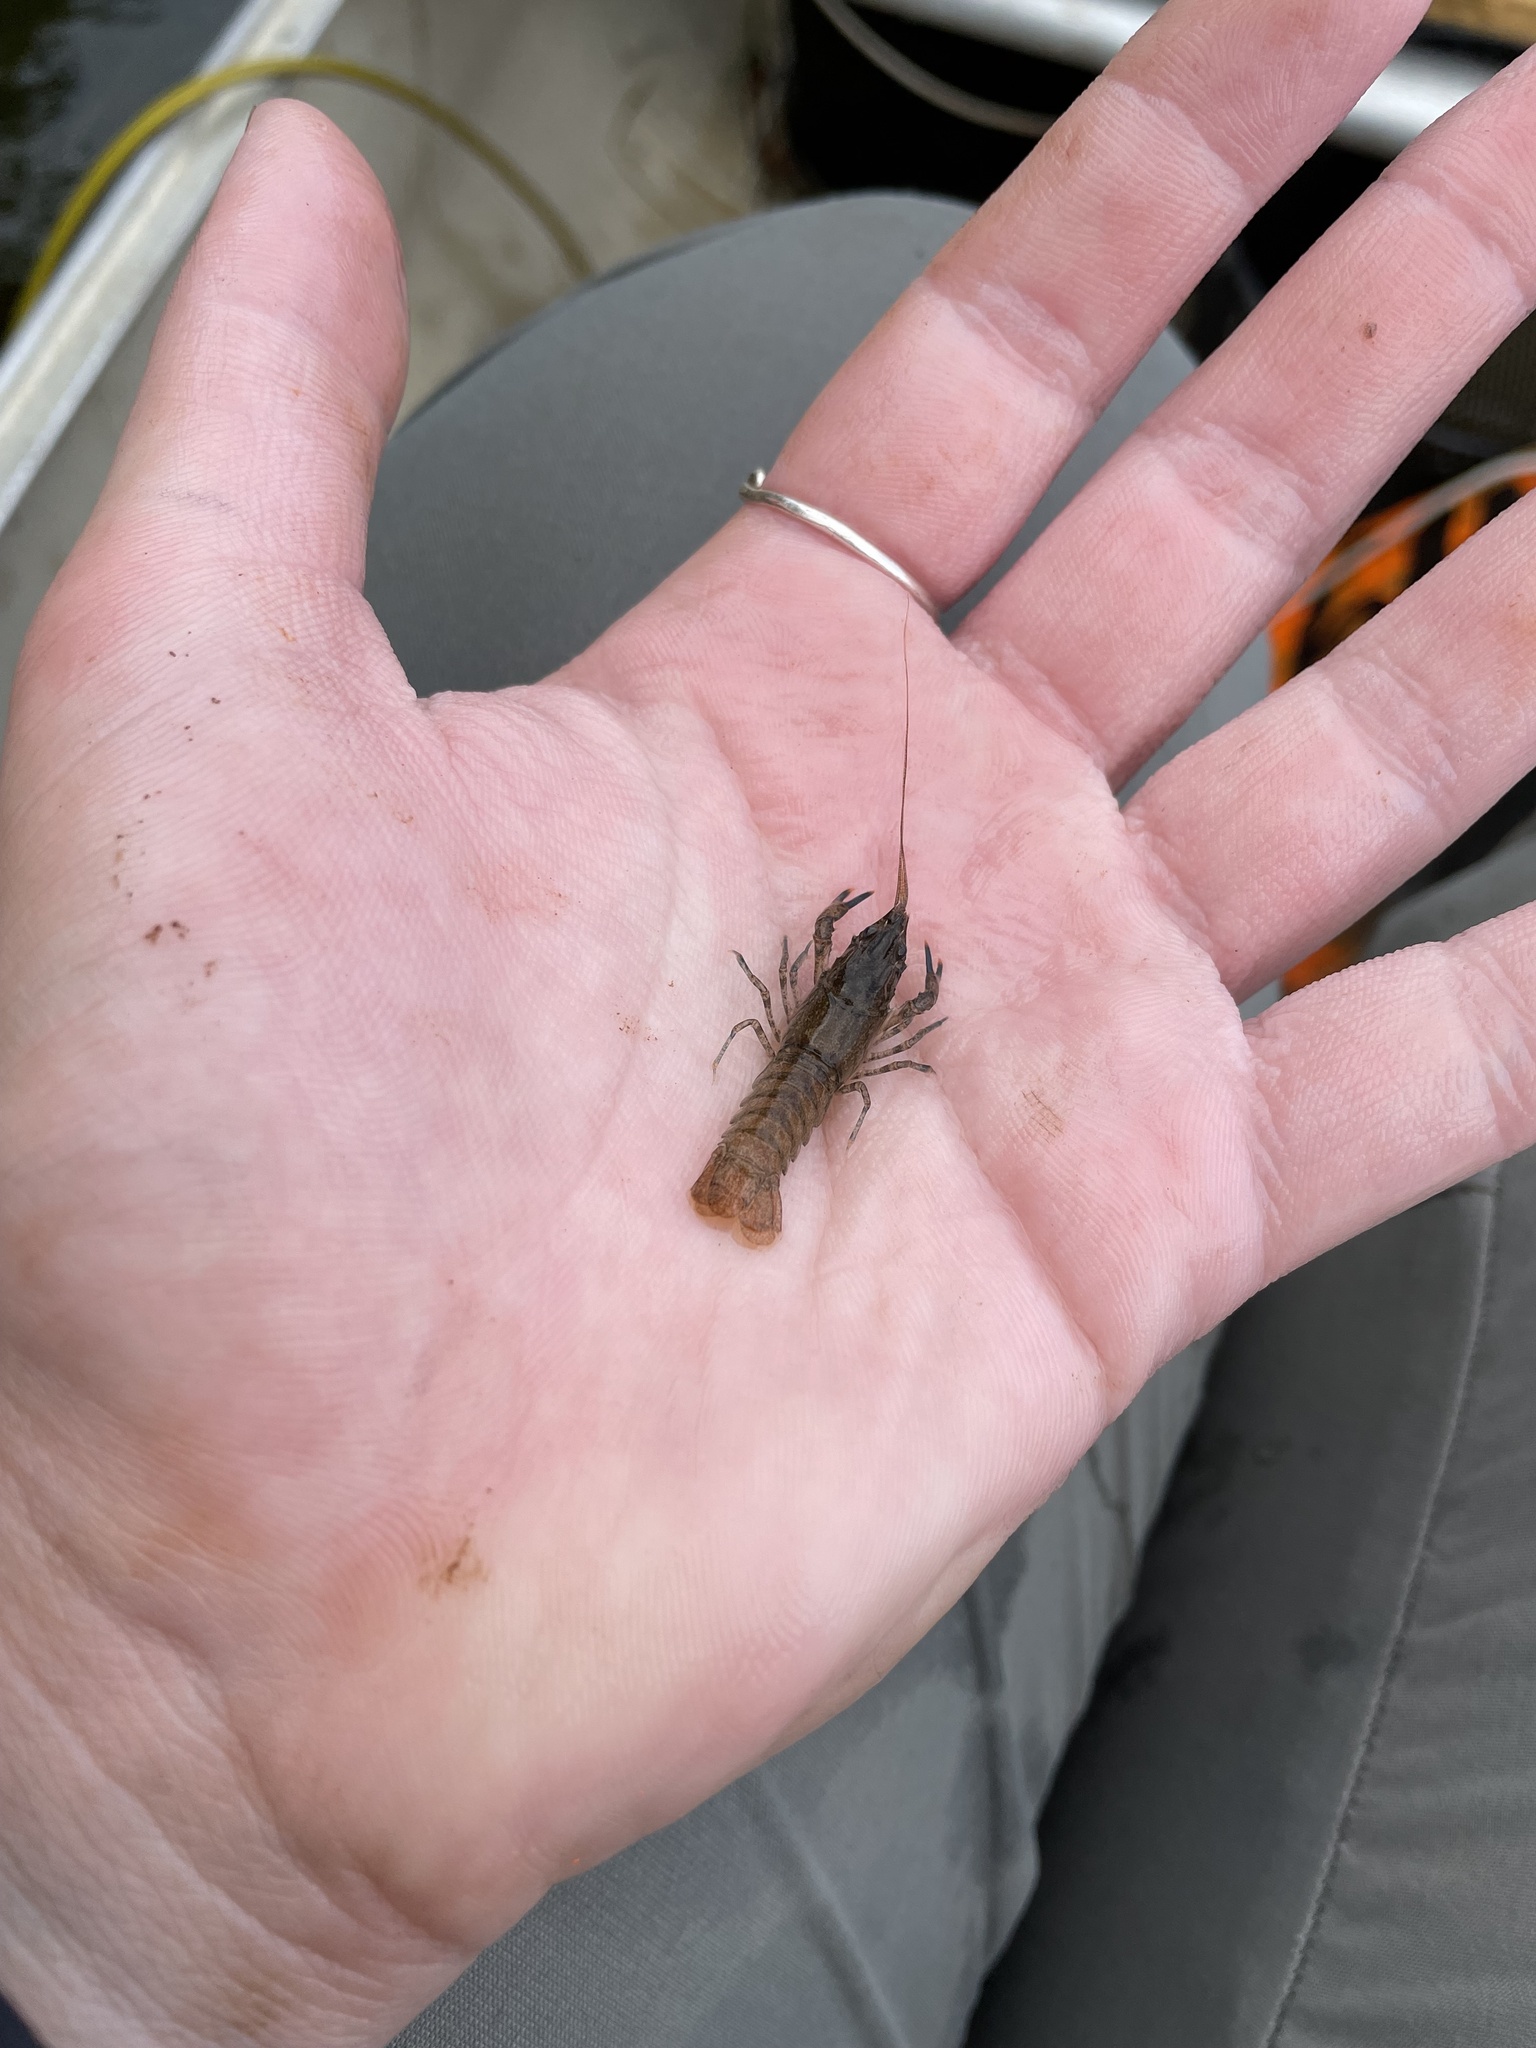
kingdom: Animalia
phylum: Arthropoda
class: Malacostraca
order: Decapoda
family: Cambaridae
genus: Faxonius
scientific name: Faxonius limosus
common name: American crayfish
